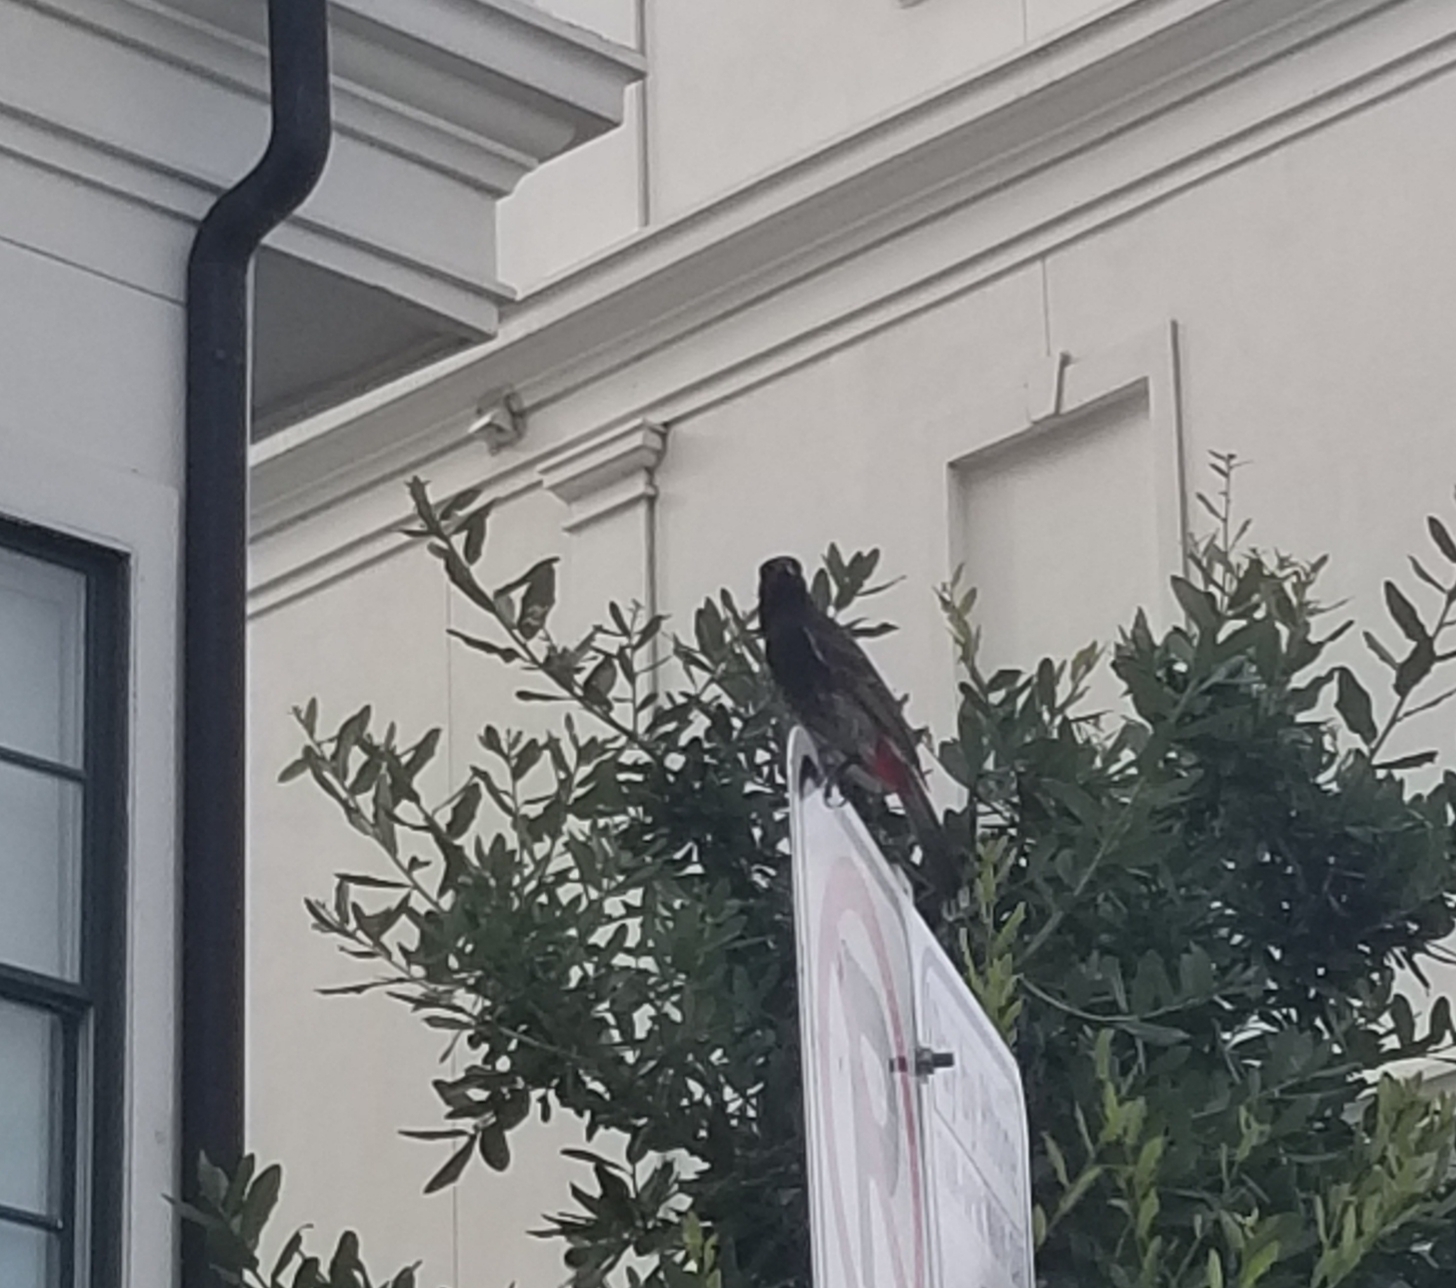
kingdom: Animalia
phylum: Chordata
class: Aves
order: Passeriformes
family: Pycnonotidae
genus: Pycnonotus
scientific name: Pycnonotus cafer
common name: Red-vented bulbul
